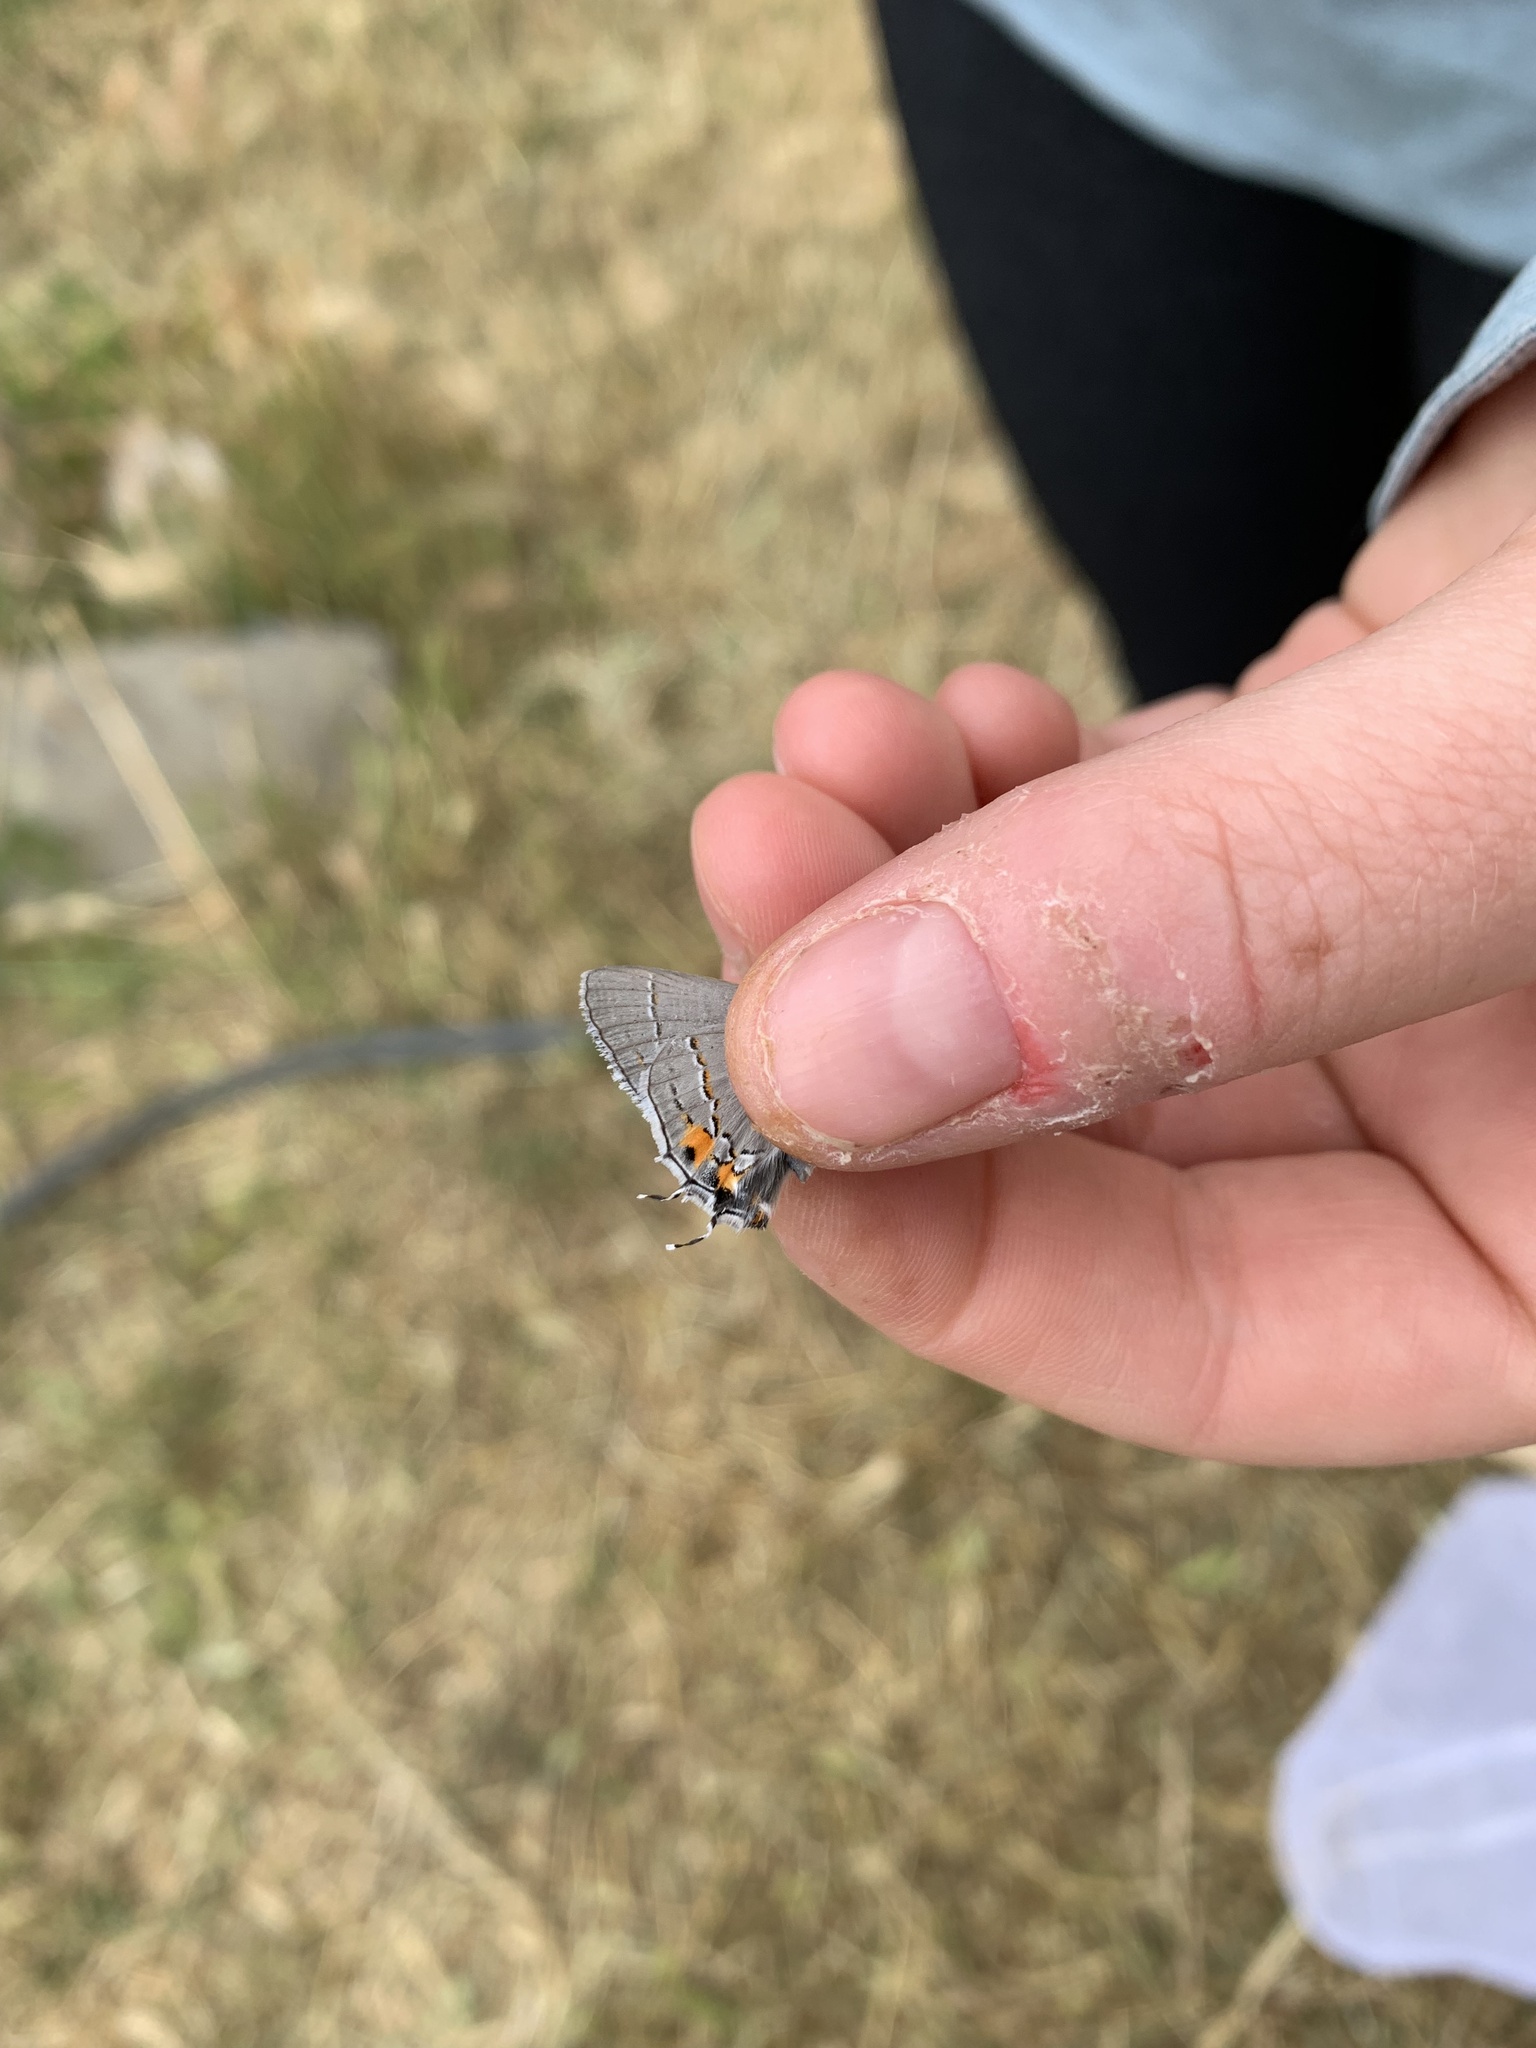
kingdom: Animalia
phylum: Arthropoda
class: Insecta
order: Lepidoptera
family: Lycaenidae
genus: Strymon
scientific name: Strymon melinus
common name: Gray hairstreak
